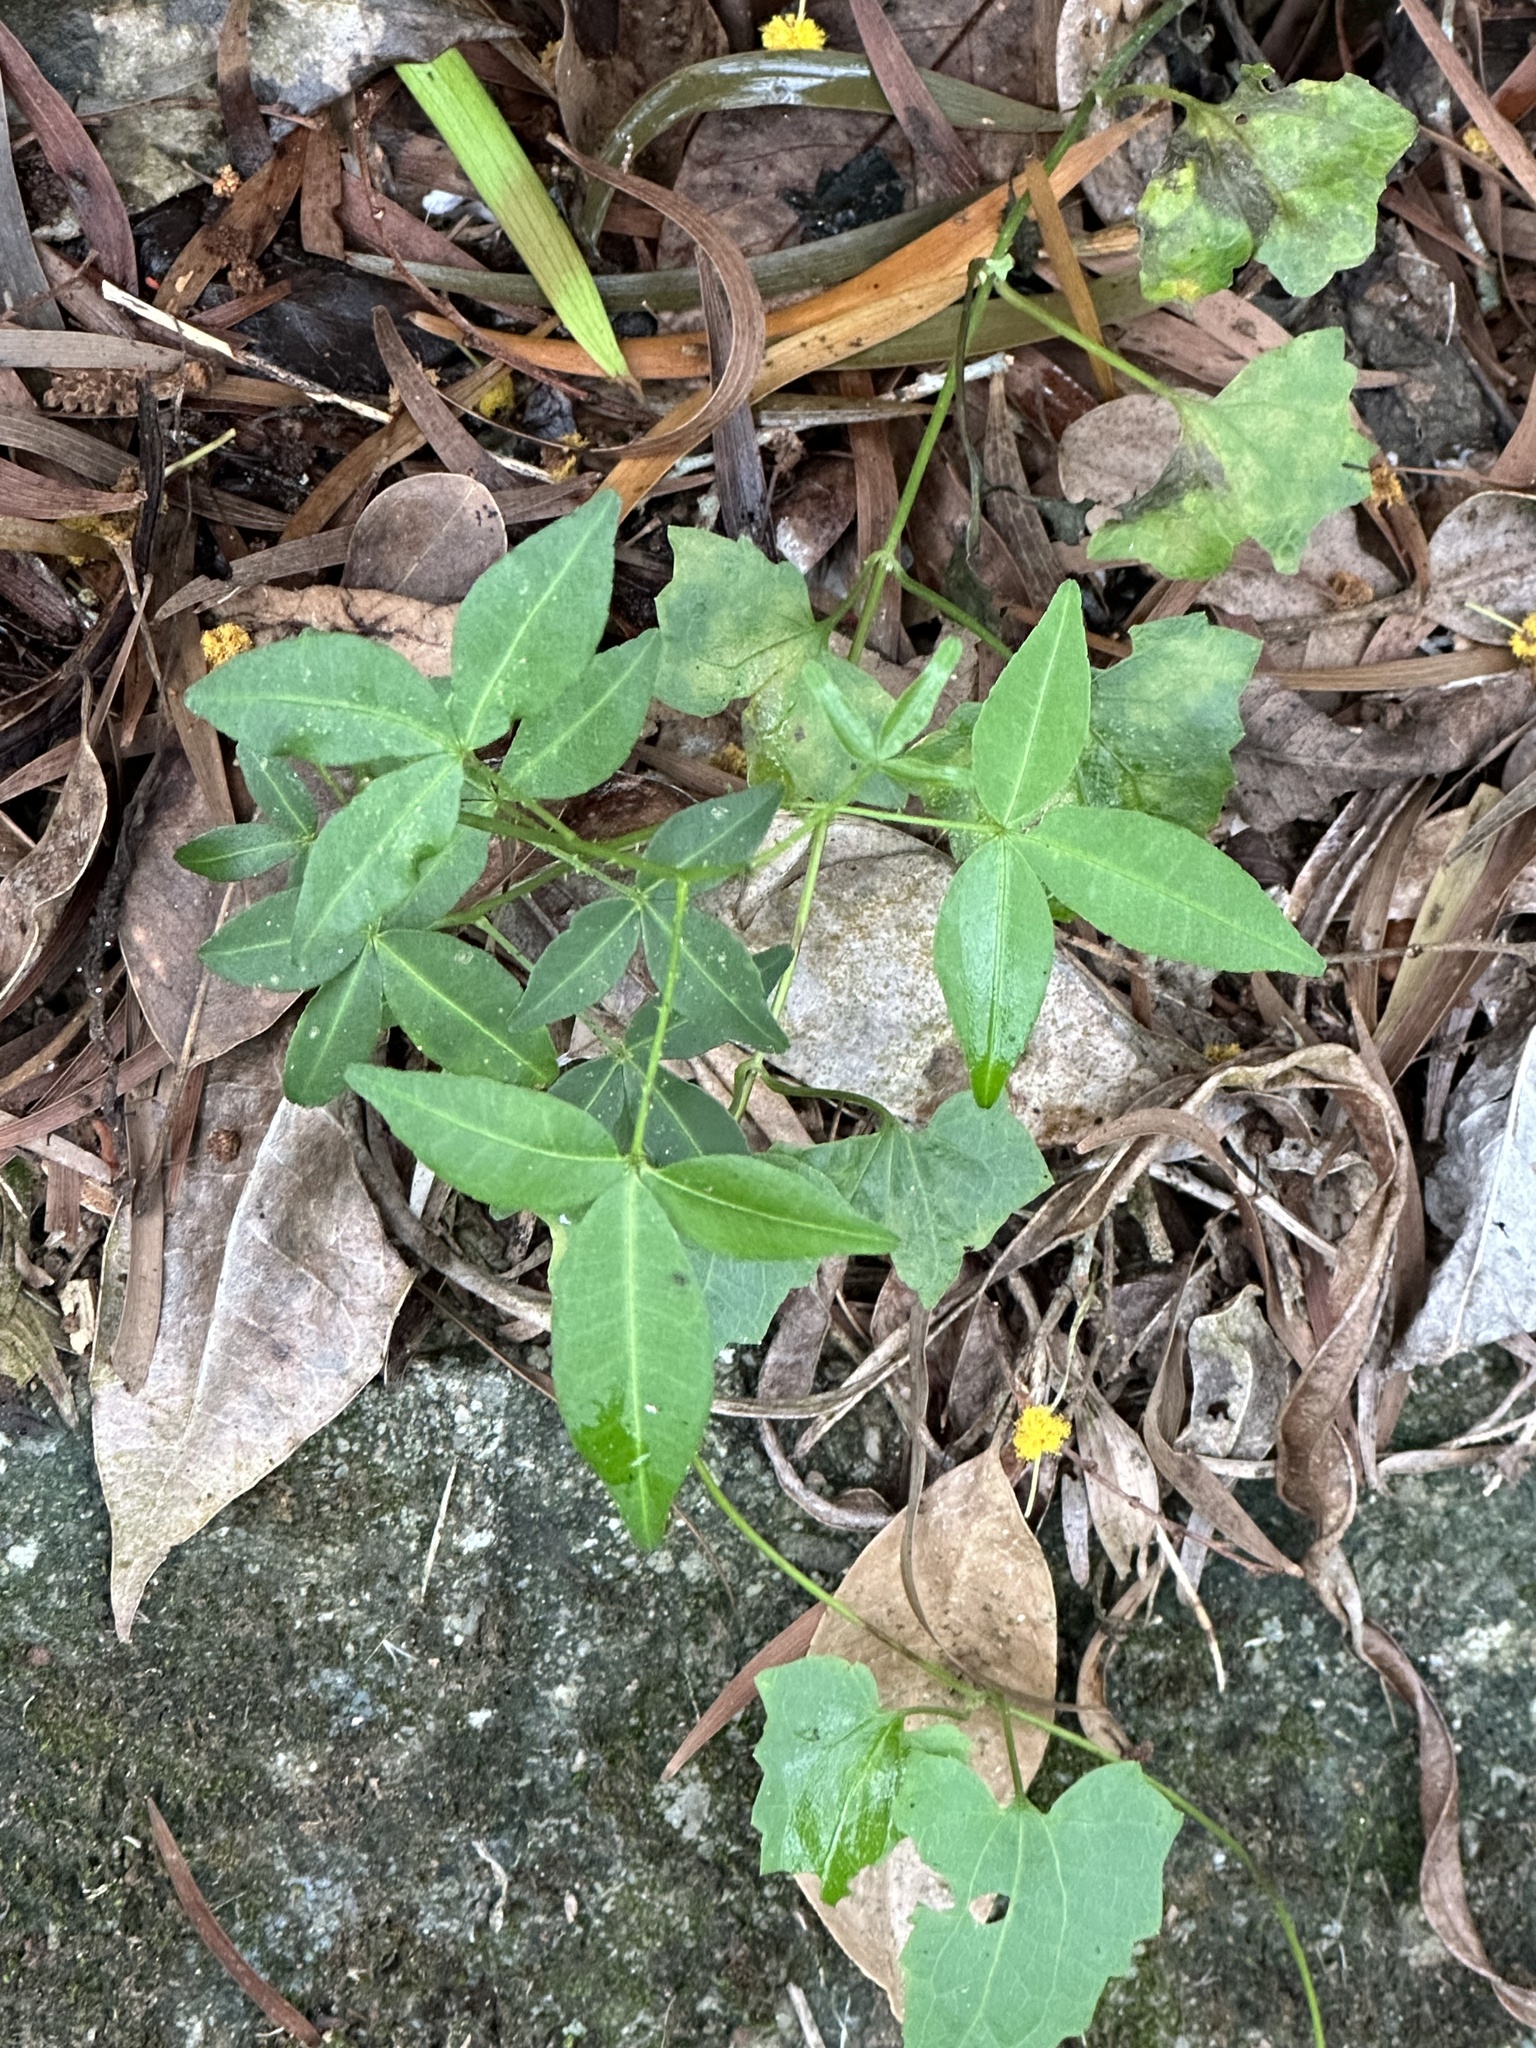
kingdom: Plantae
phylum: Tracheophyta
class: Magnoliopsida
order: Sapindales
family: Rutaceae
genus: Zanthoxylum
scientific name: Zanthoxylum asiaticum
